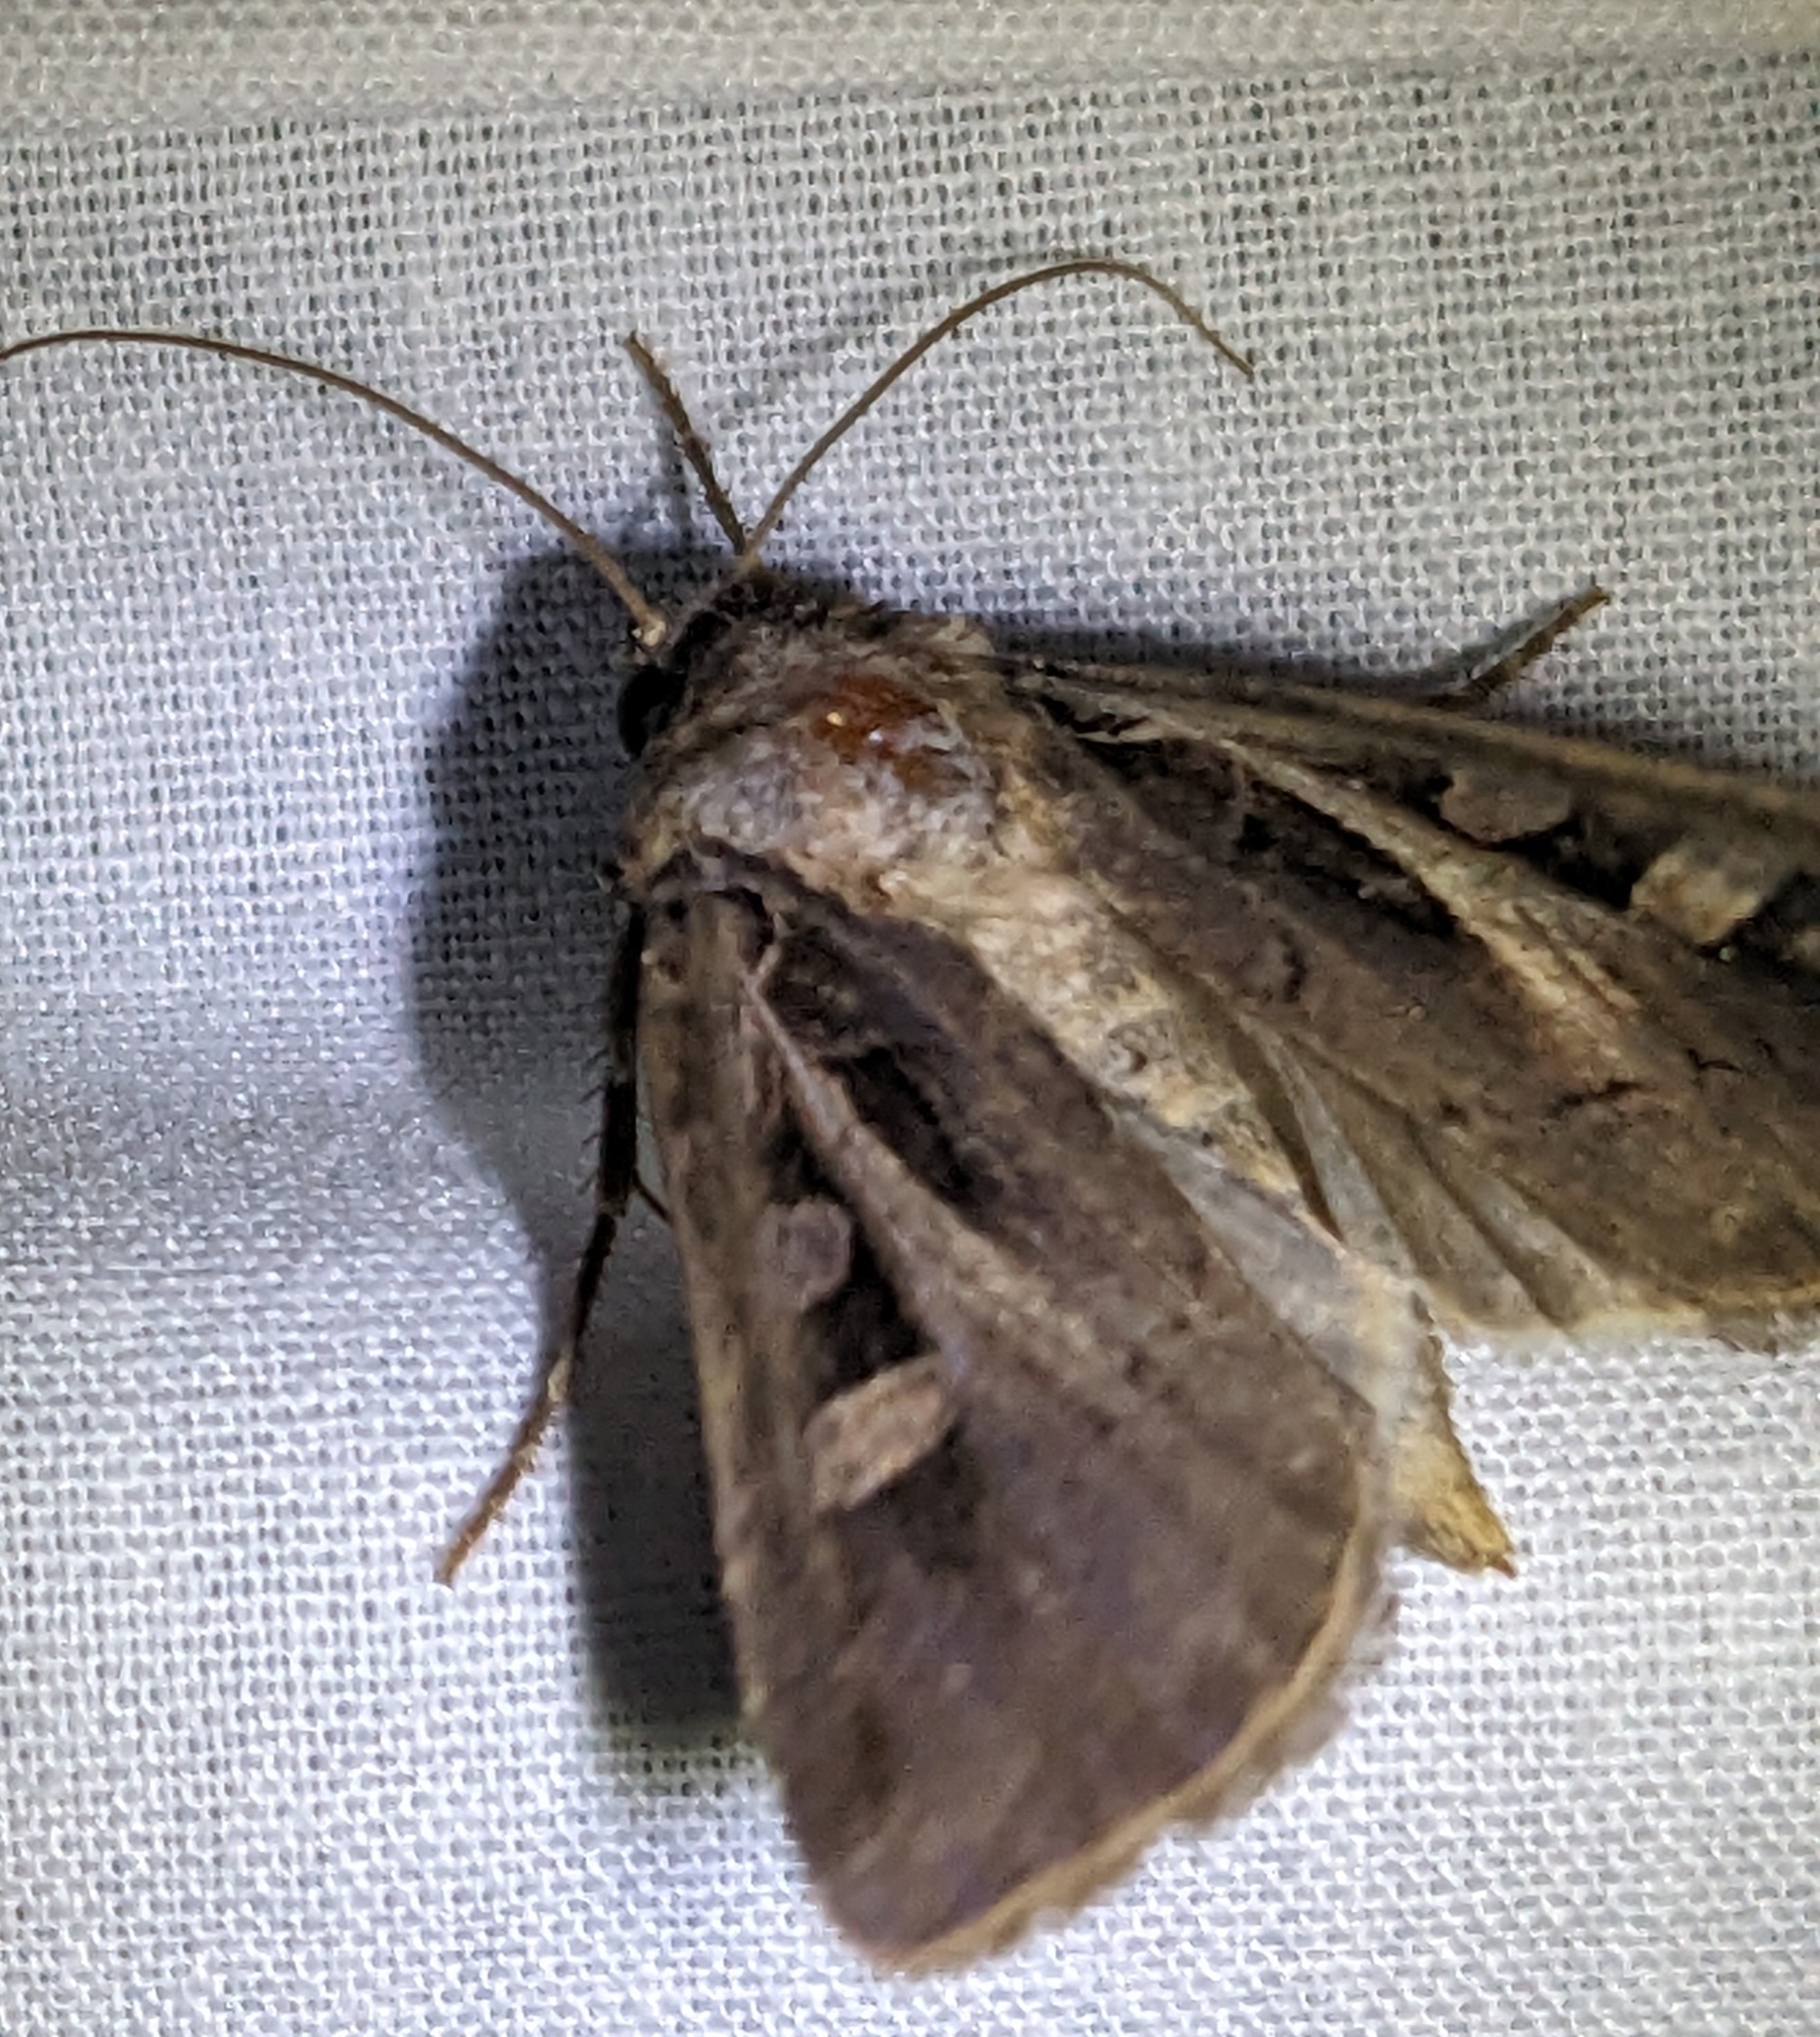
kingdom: Animalia
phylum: Arthropoda
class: Insecta
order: Lepidoptera
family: Noctuidae
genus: Feltia
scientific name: Feltia herilis
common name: Master's dart
